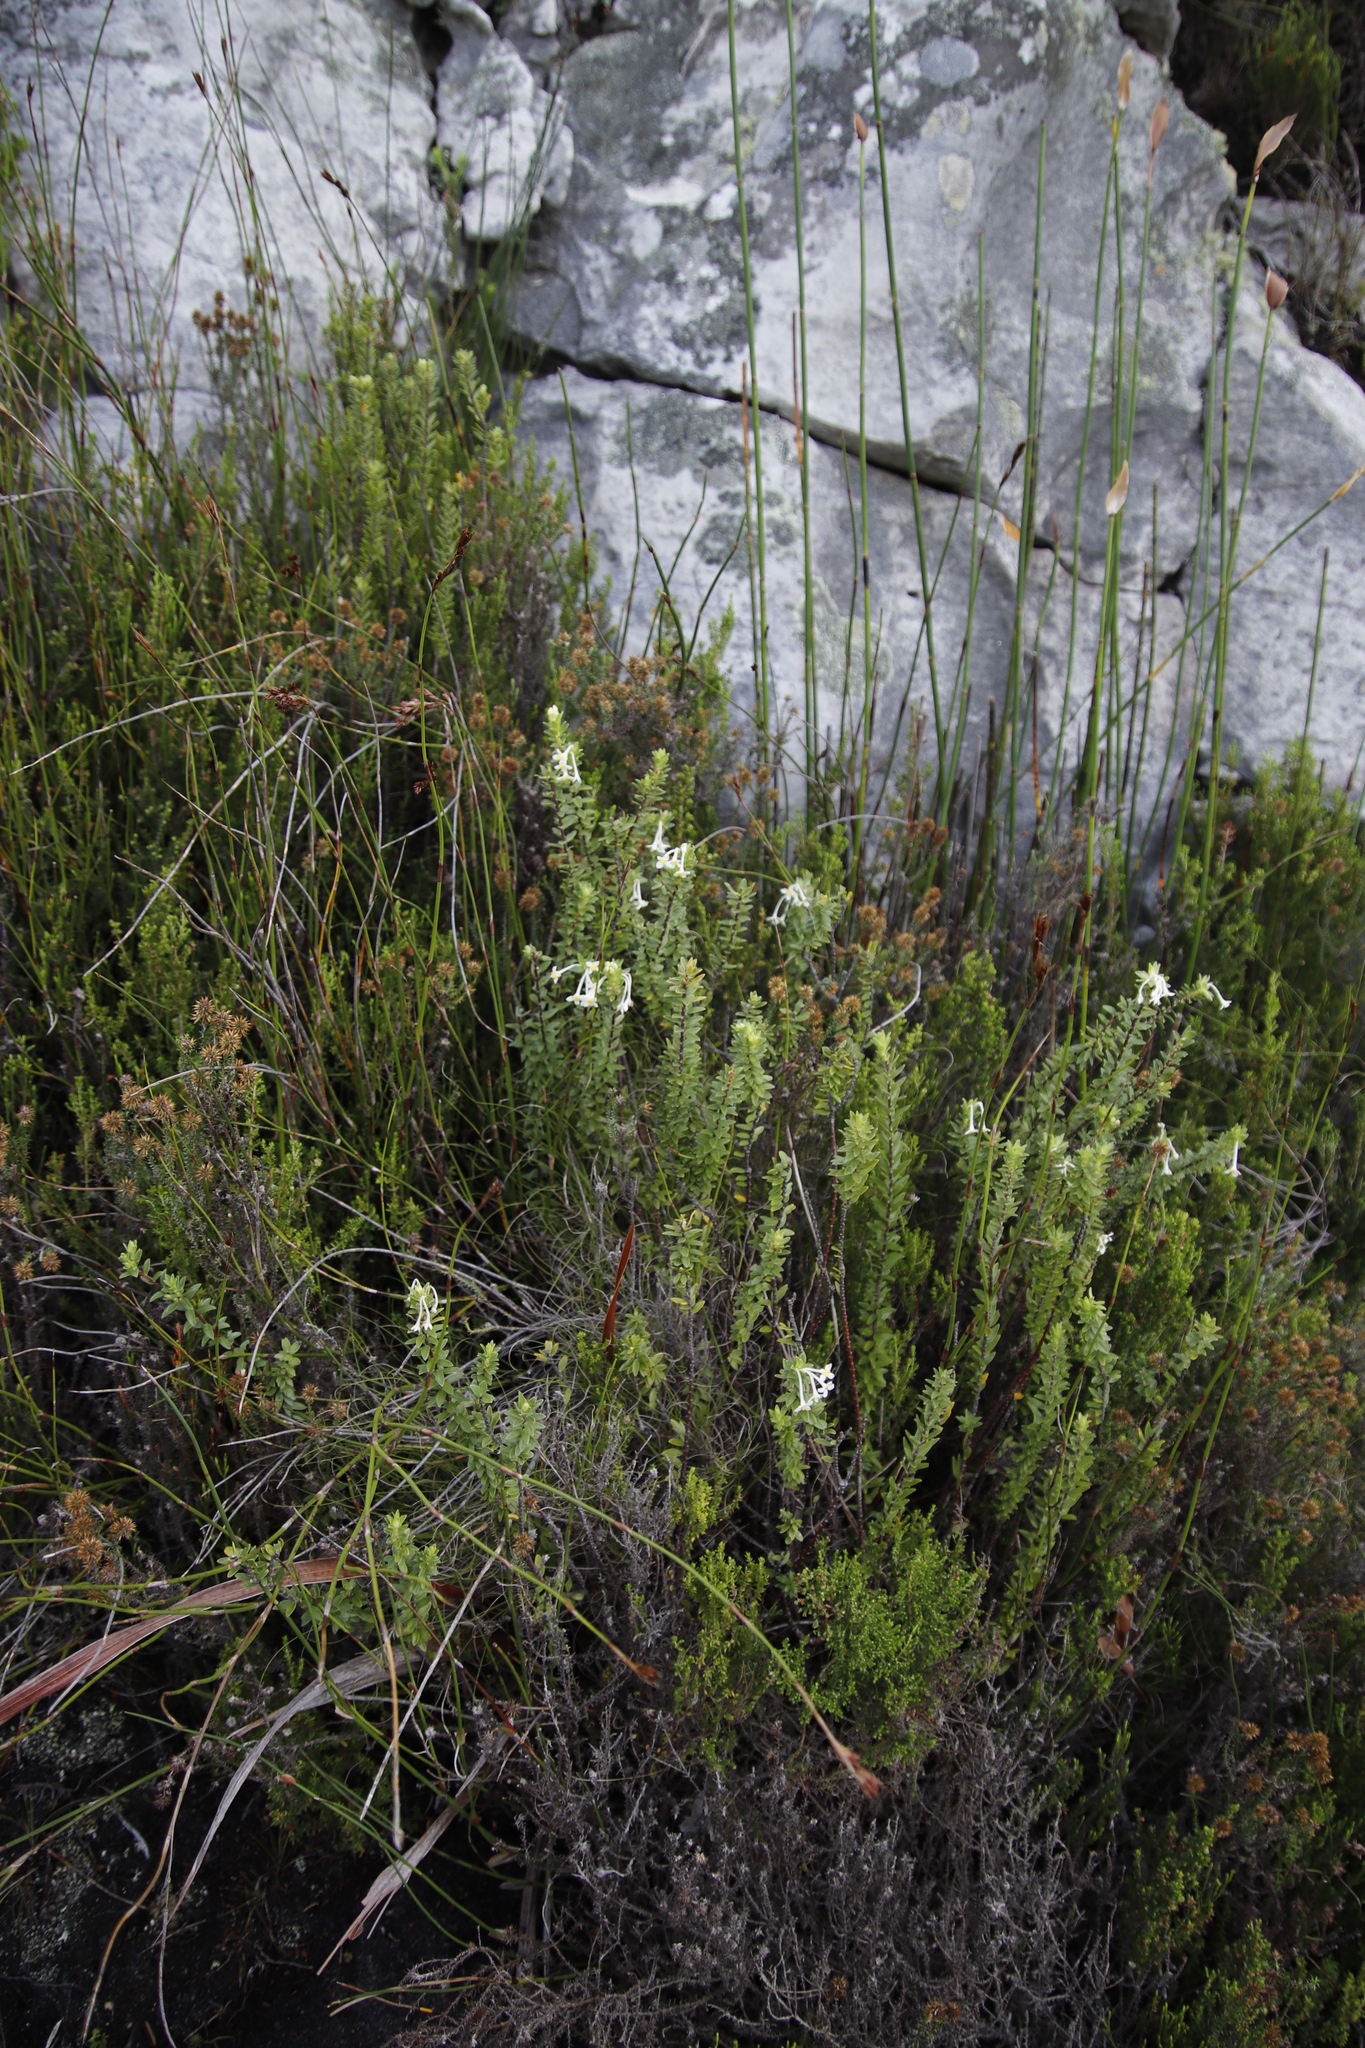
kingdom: Plantae
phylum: Tracheophyta
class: Magnoliopsida
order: Malvales
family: Thymelaeaceae
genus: Gnidia
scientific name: Gnidia tomentosa
